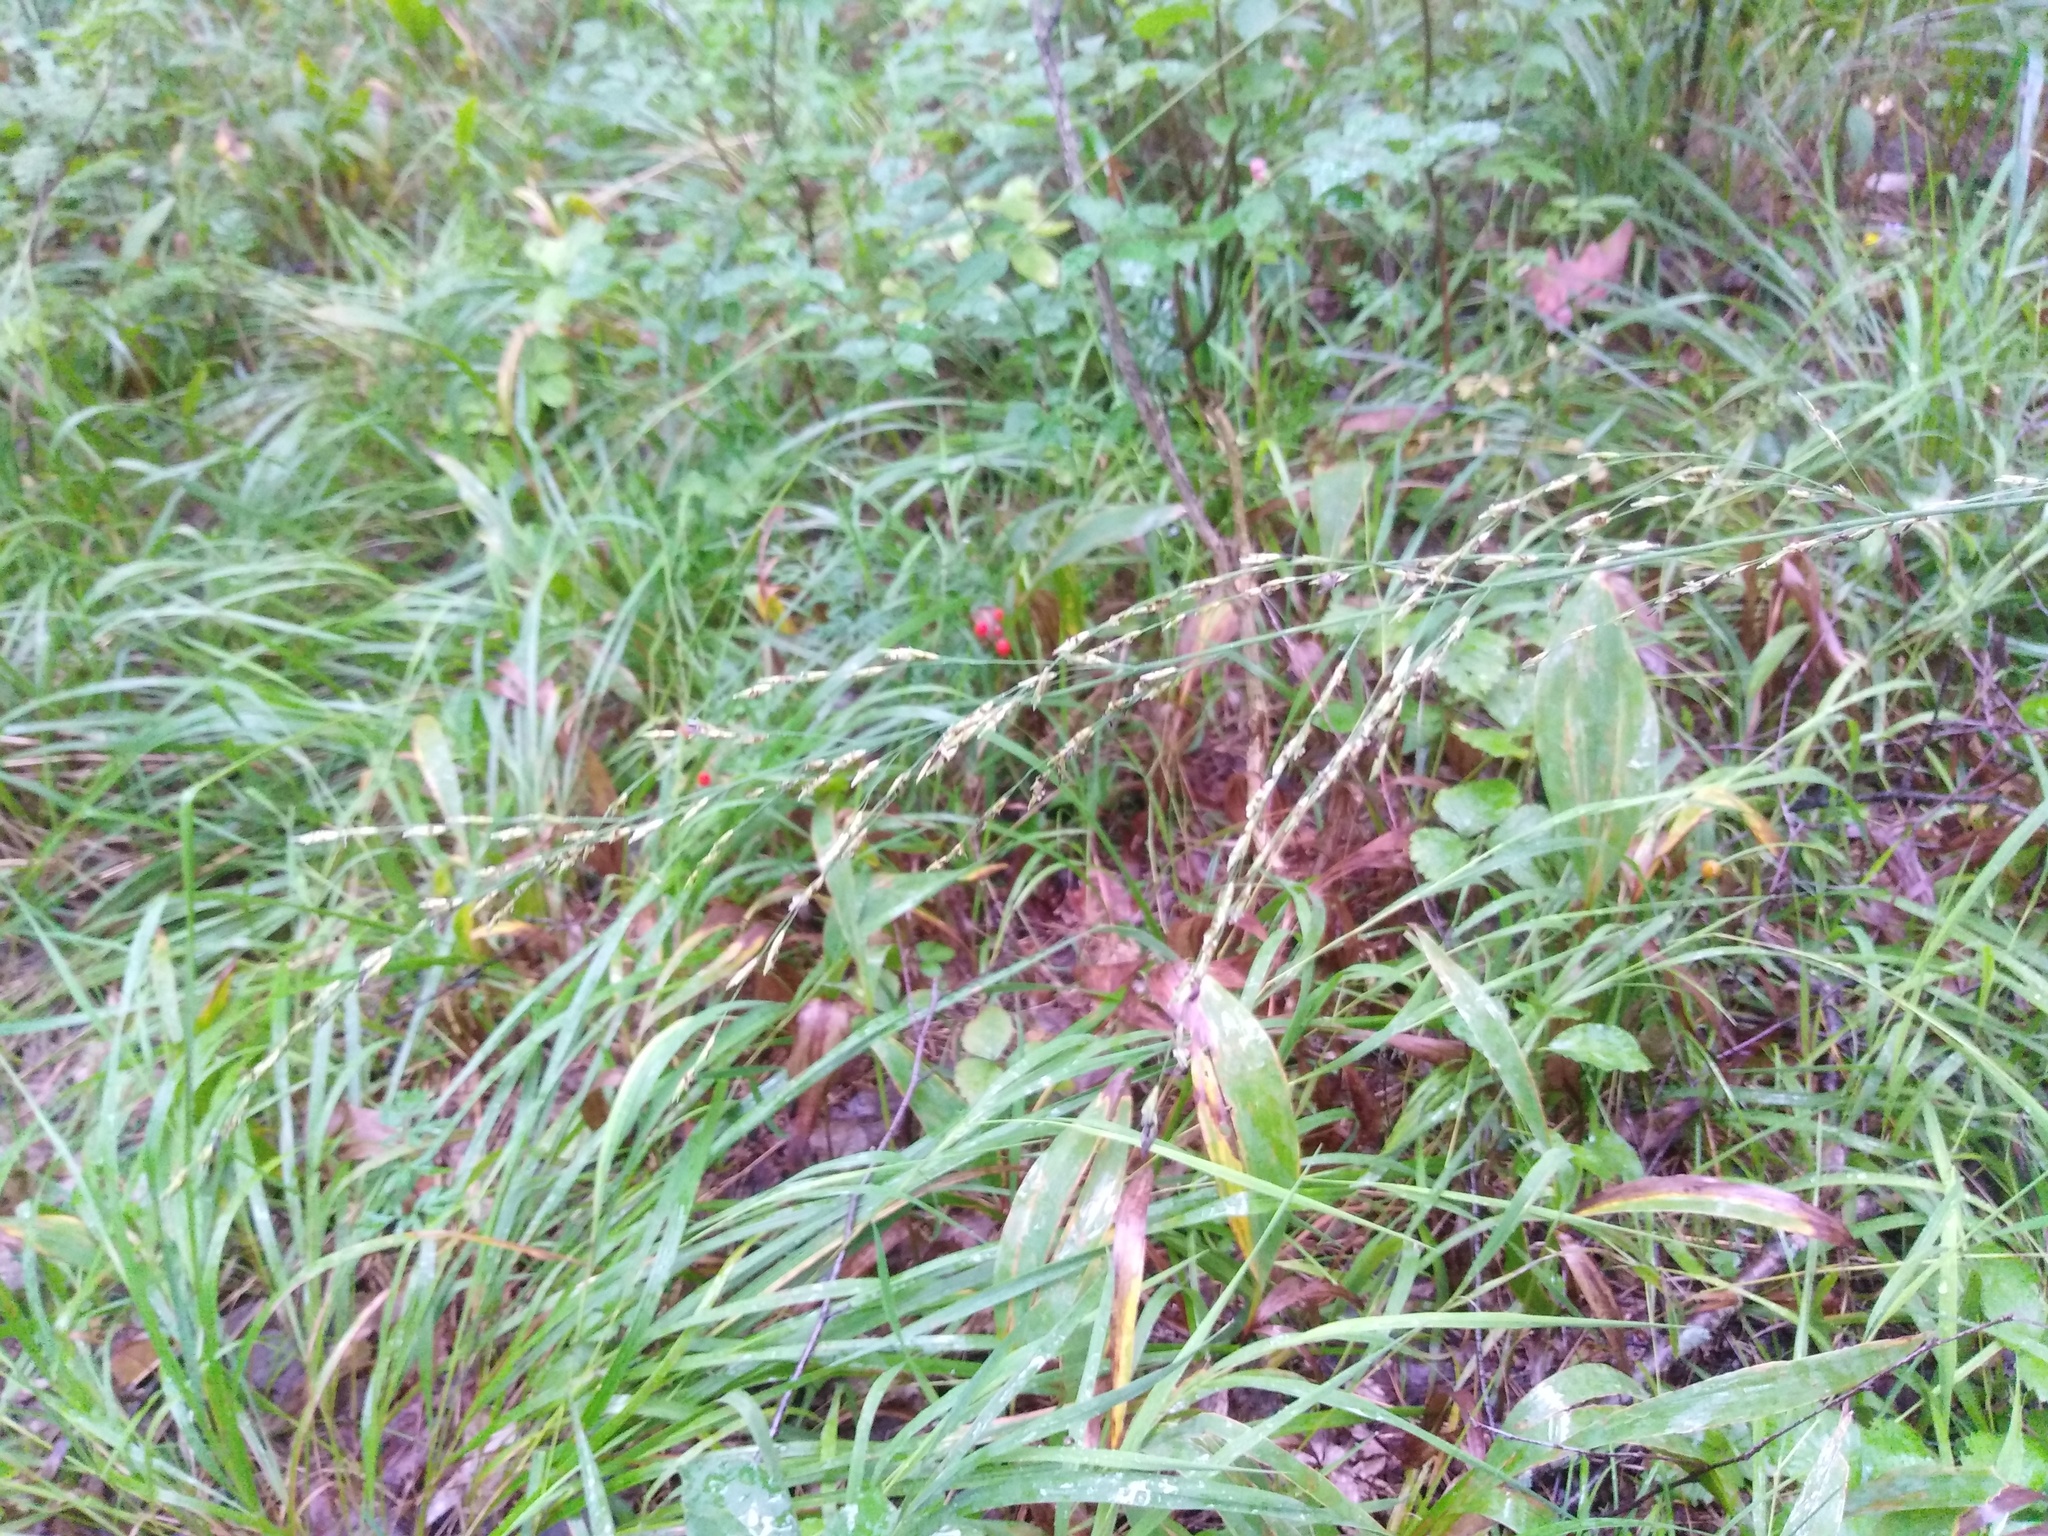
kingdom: Plantae
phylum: Tracheophyta
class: Liliopsida
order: Poales
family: Poaceae
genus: Molinia
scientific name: Molinia caerulea
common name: Purple moor-grass
